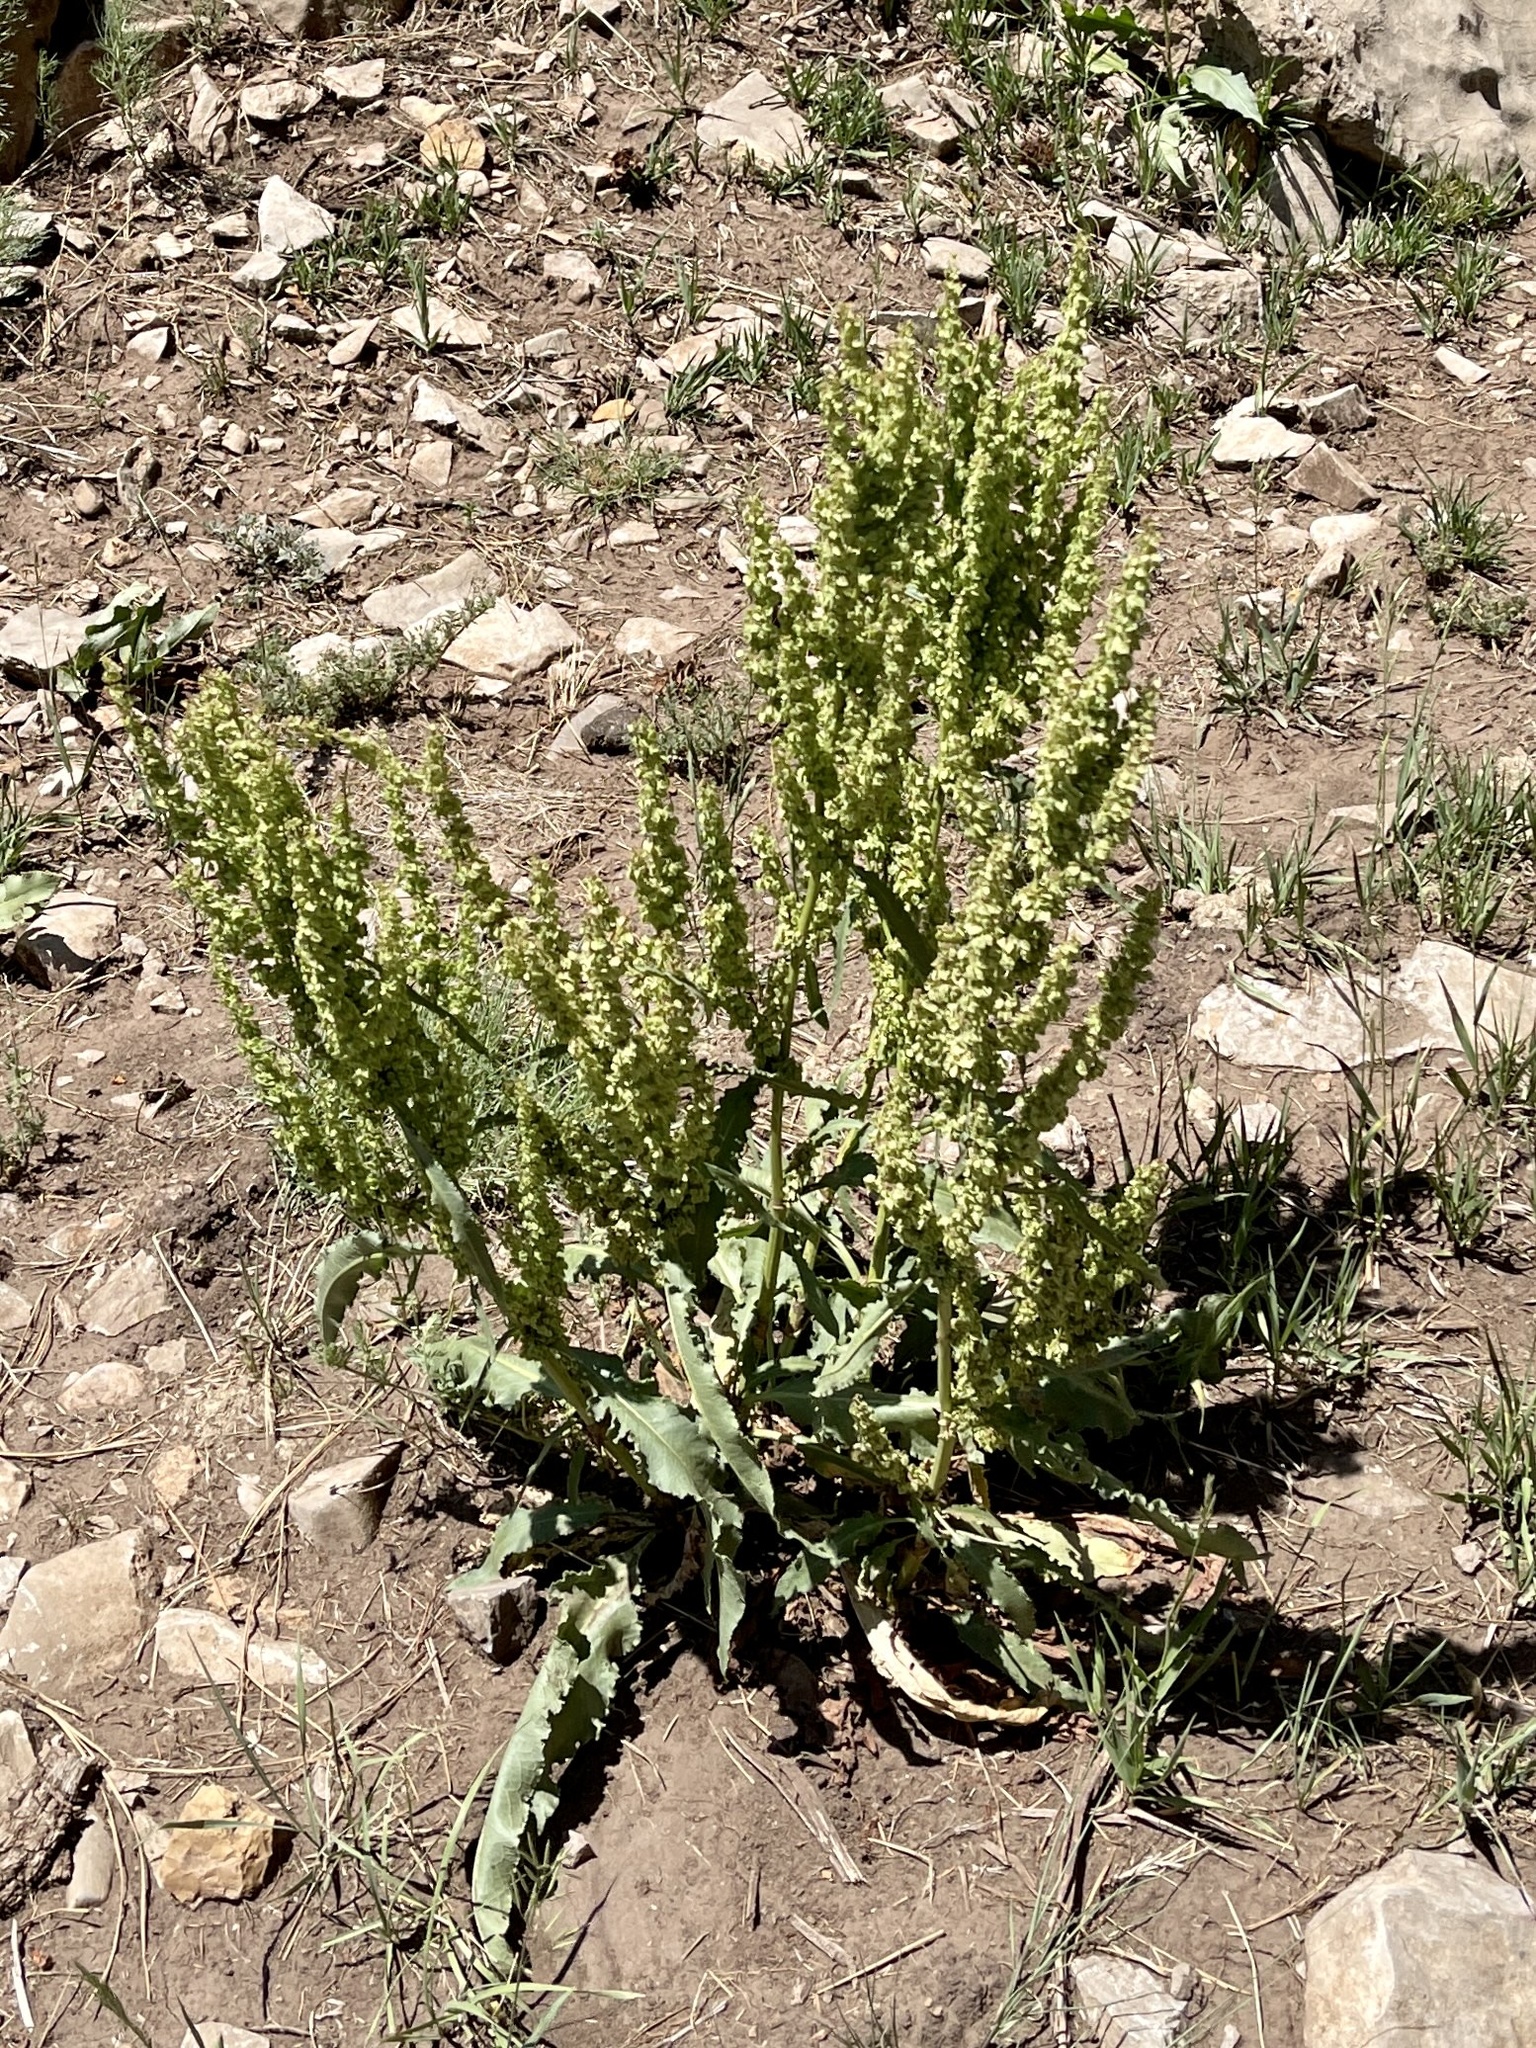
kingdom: Plantae
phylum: Tracheophyta
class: Magnoliopsida
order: Caryophyllales
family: Polygonaceae
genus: Rumex
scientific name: Rumex crispus
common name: Curled dock
